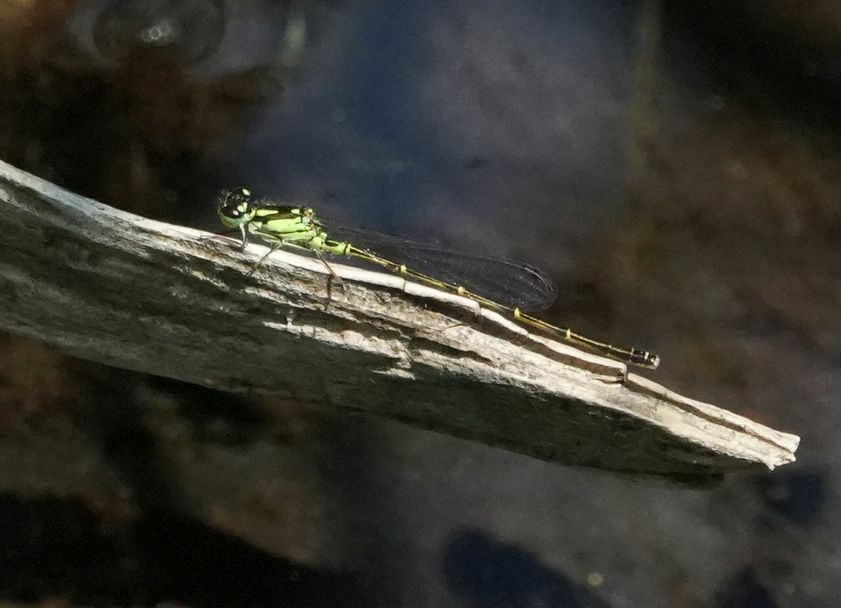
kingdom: Animalia
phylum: Arthropoda
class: Insecta
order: Odonata
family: Coenagrionidae
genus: Ischnura
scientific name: Ischnura posita
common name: Fragile forktail
